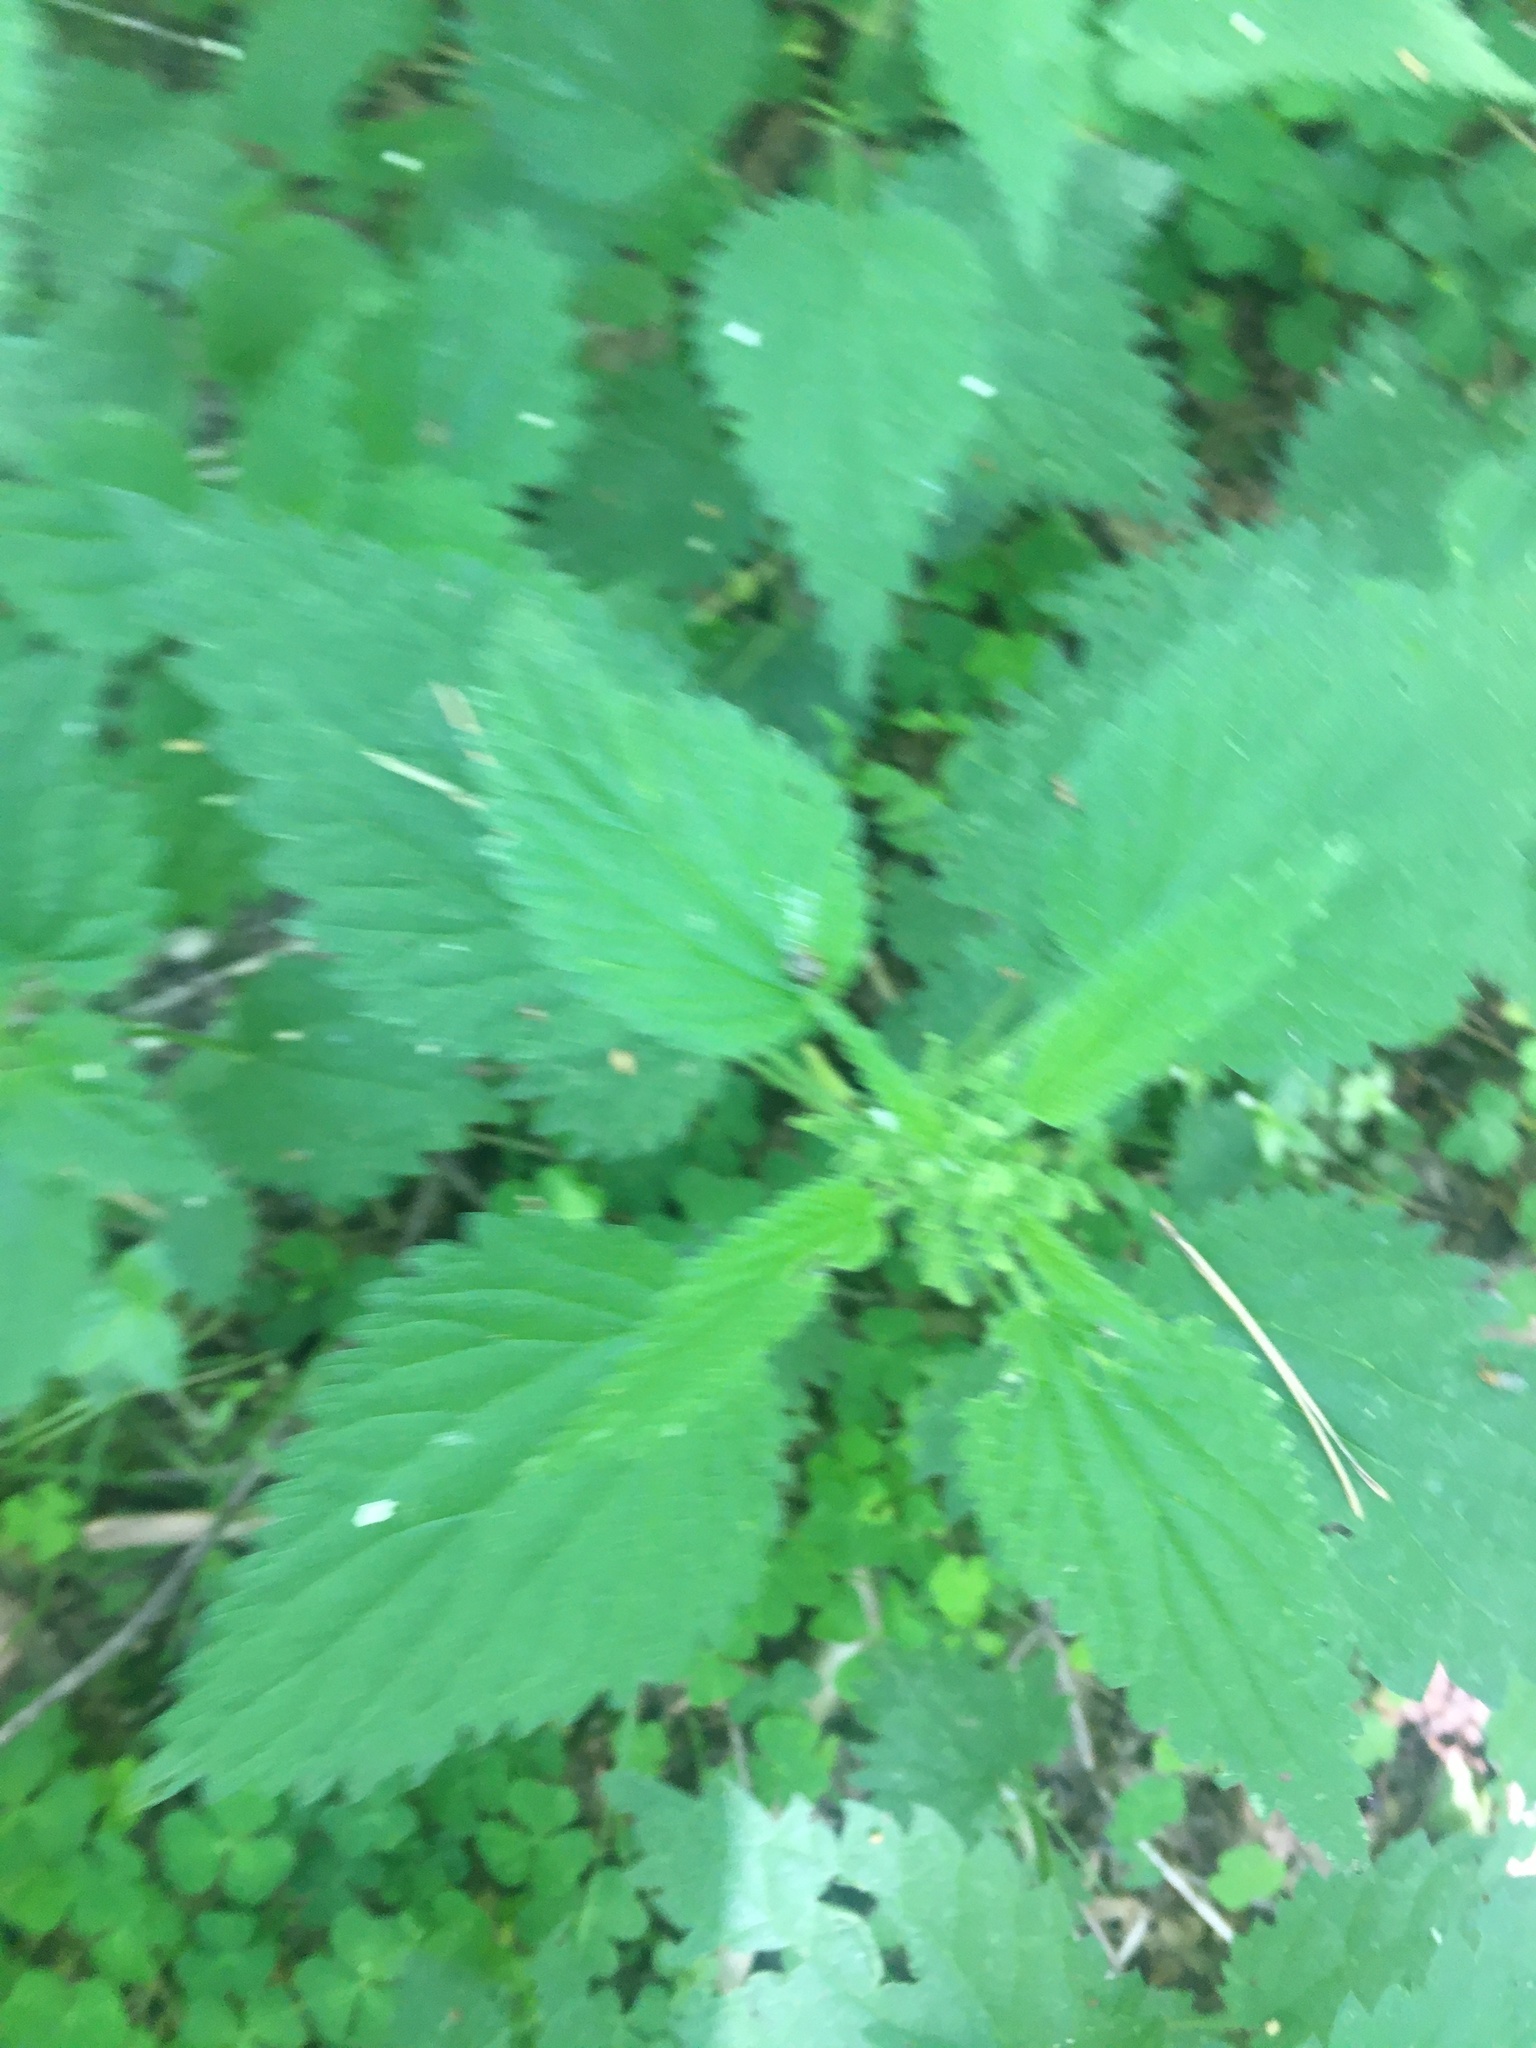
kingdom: Plantae
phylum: Tracheophyta
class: Magnoliopsida
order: Rosales
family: Urticaceae
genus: Urtica
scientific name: Urtica dioica
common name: Common nettle
